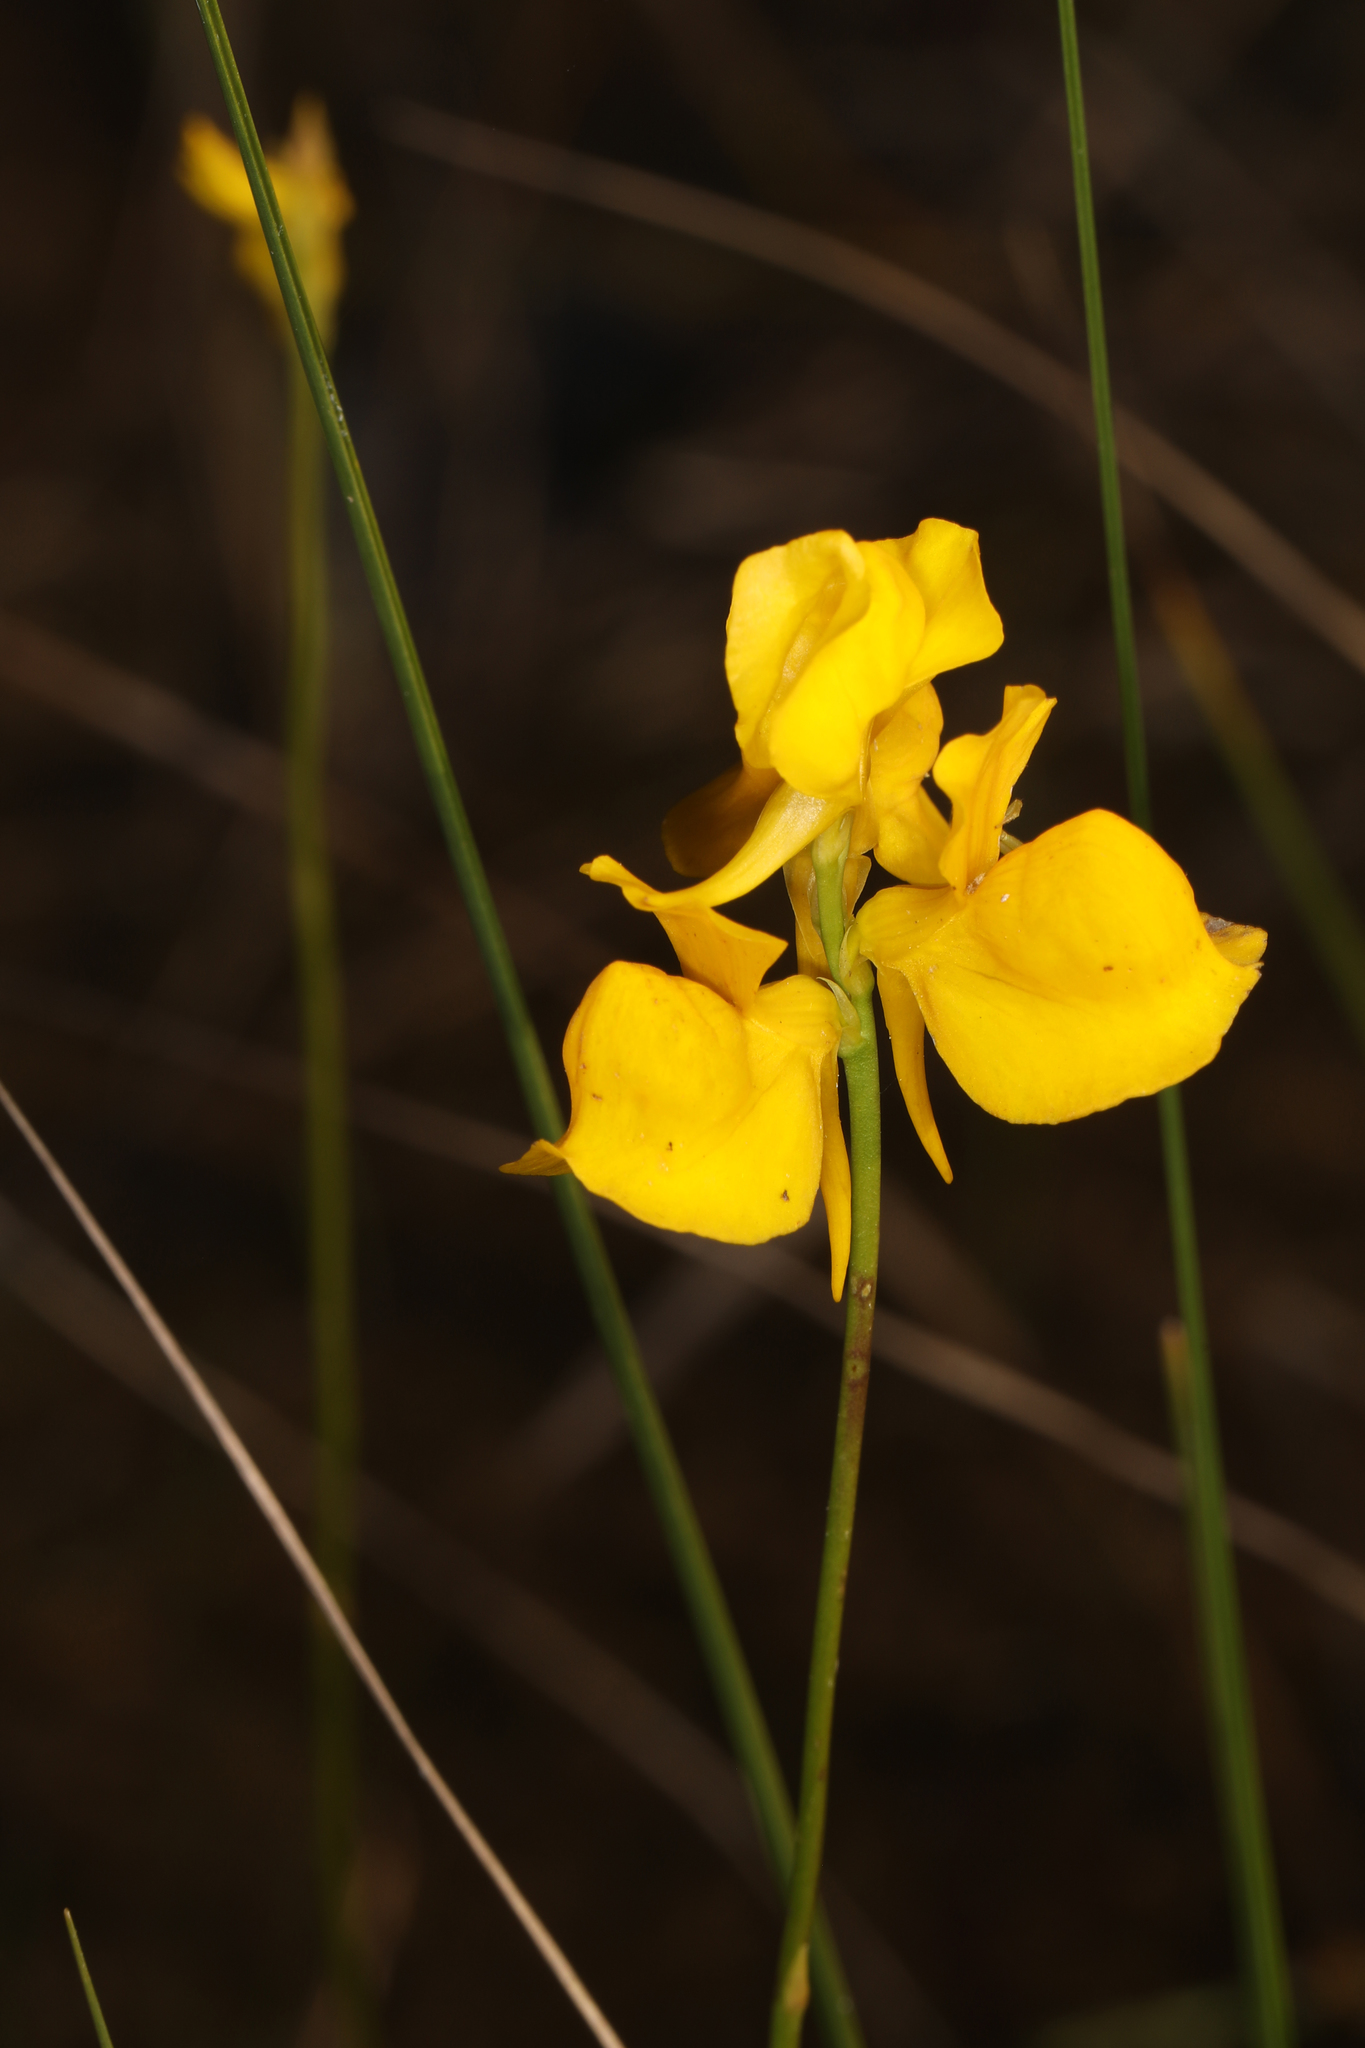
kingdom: Plantae
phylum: Tracheophyta
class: Magnoliopsida
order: Lamiales
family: Lentibulariaceae
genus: Utricularia
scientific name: Utricularia cornuta
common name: Horned bladderwort
